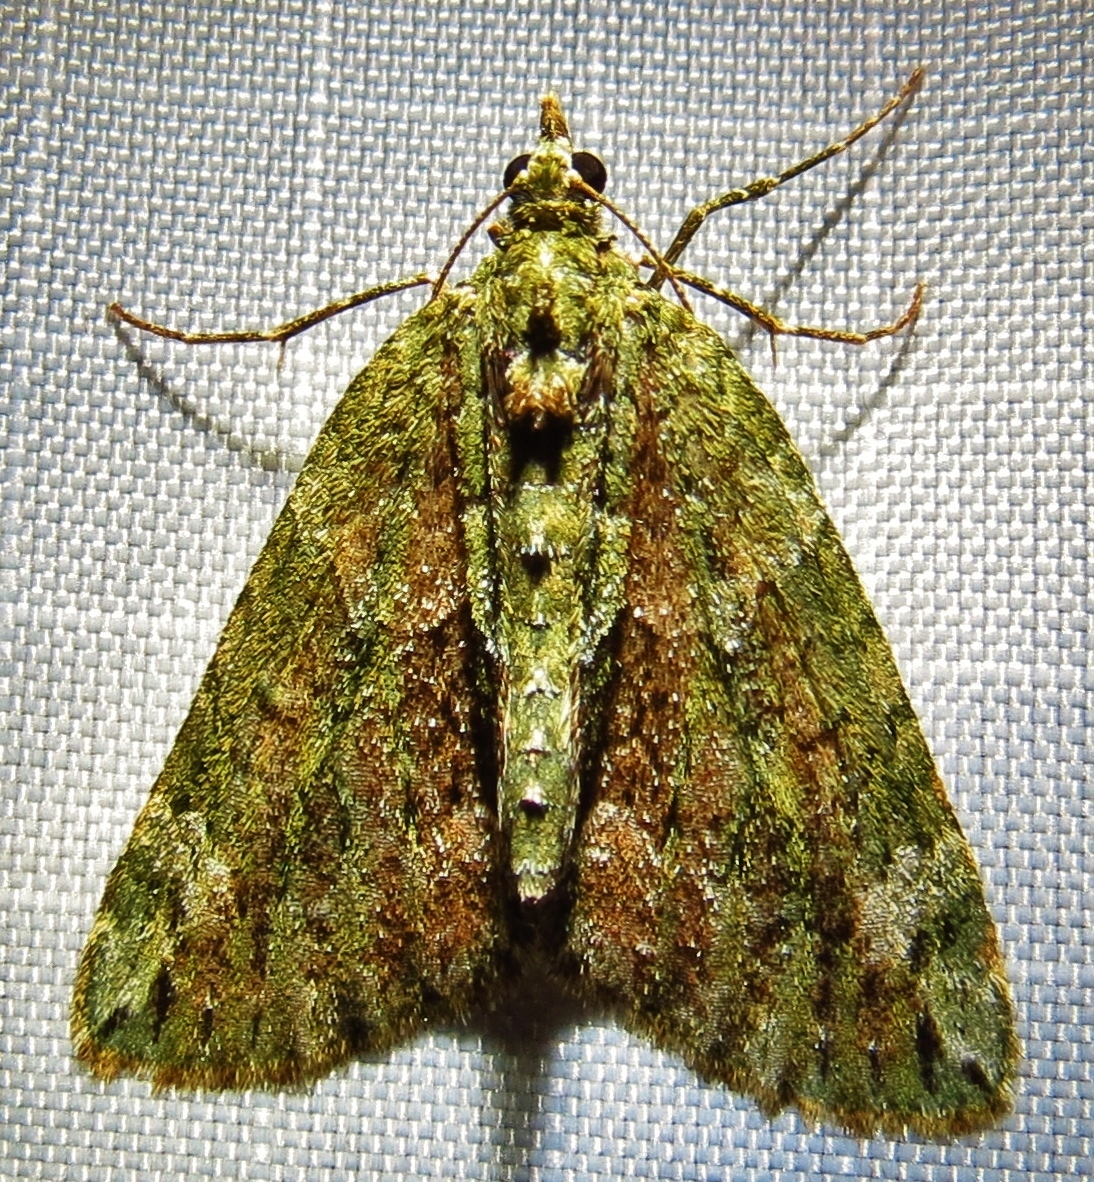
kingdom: Animalia
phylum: Arthropoda
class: Insecta
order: Lepidoptera
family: Geometridae
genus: Chloroclysta
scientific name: Chloroclysta siterata
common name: Red-green carpet
